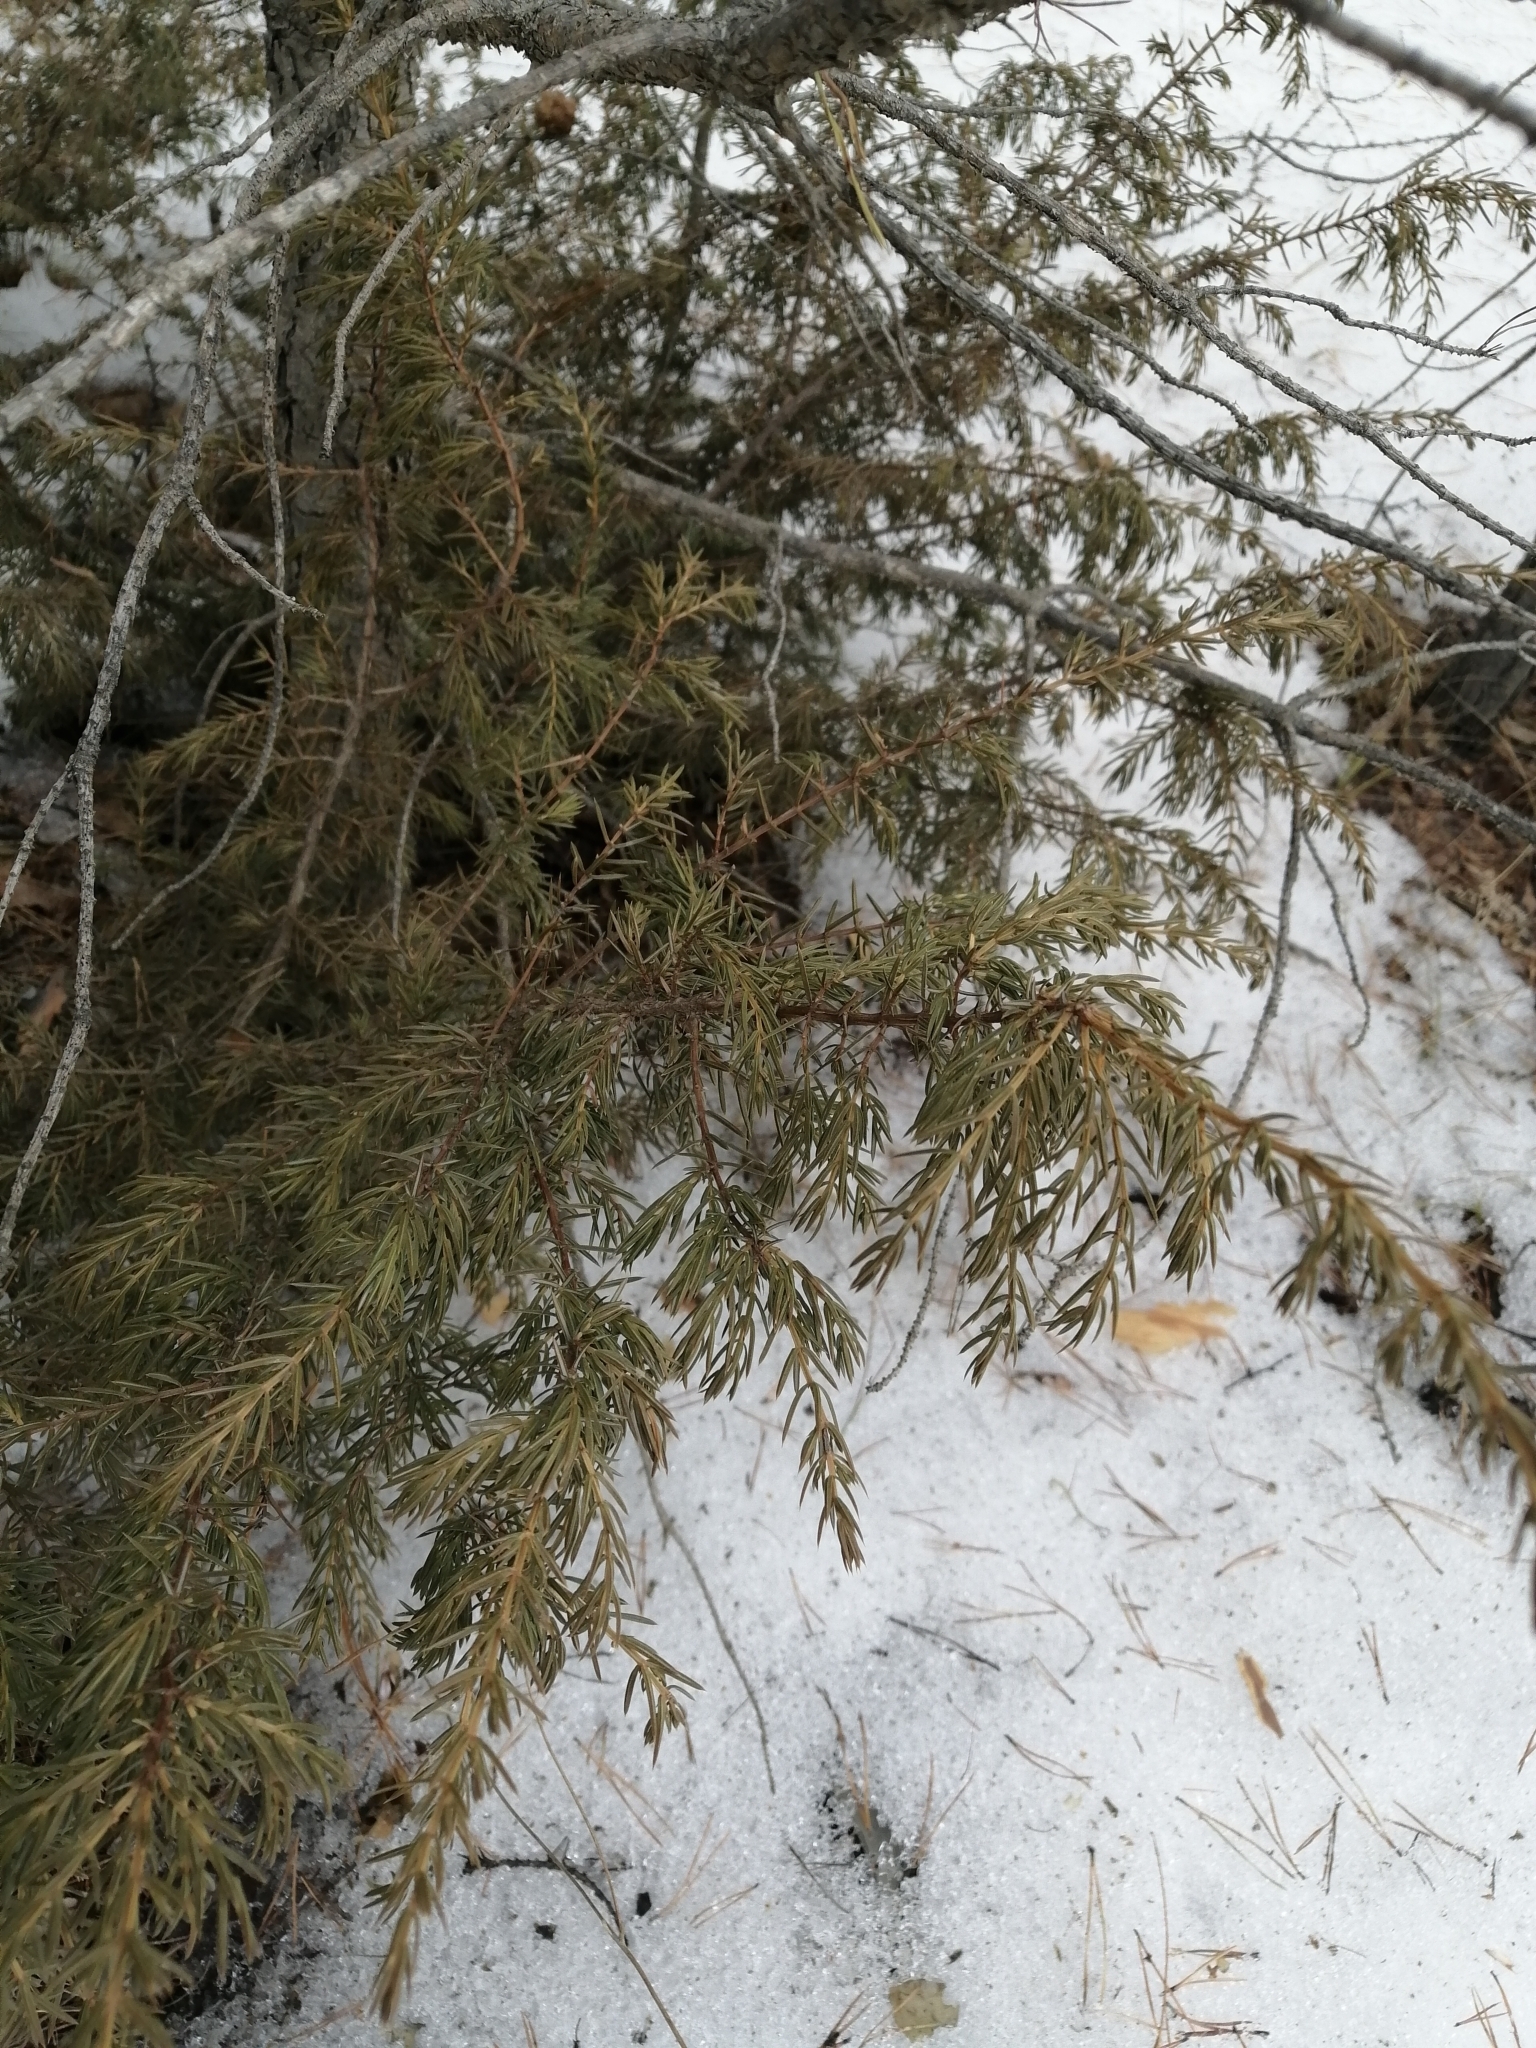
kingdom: Plantae
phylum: Tracheophyta
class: Pinopsida
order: Pinales
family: Cupressaceae
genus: Juniperus
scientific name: Juniperus communis
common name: Common juniper
